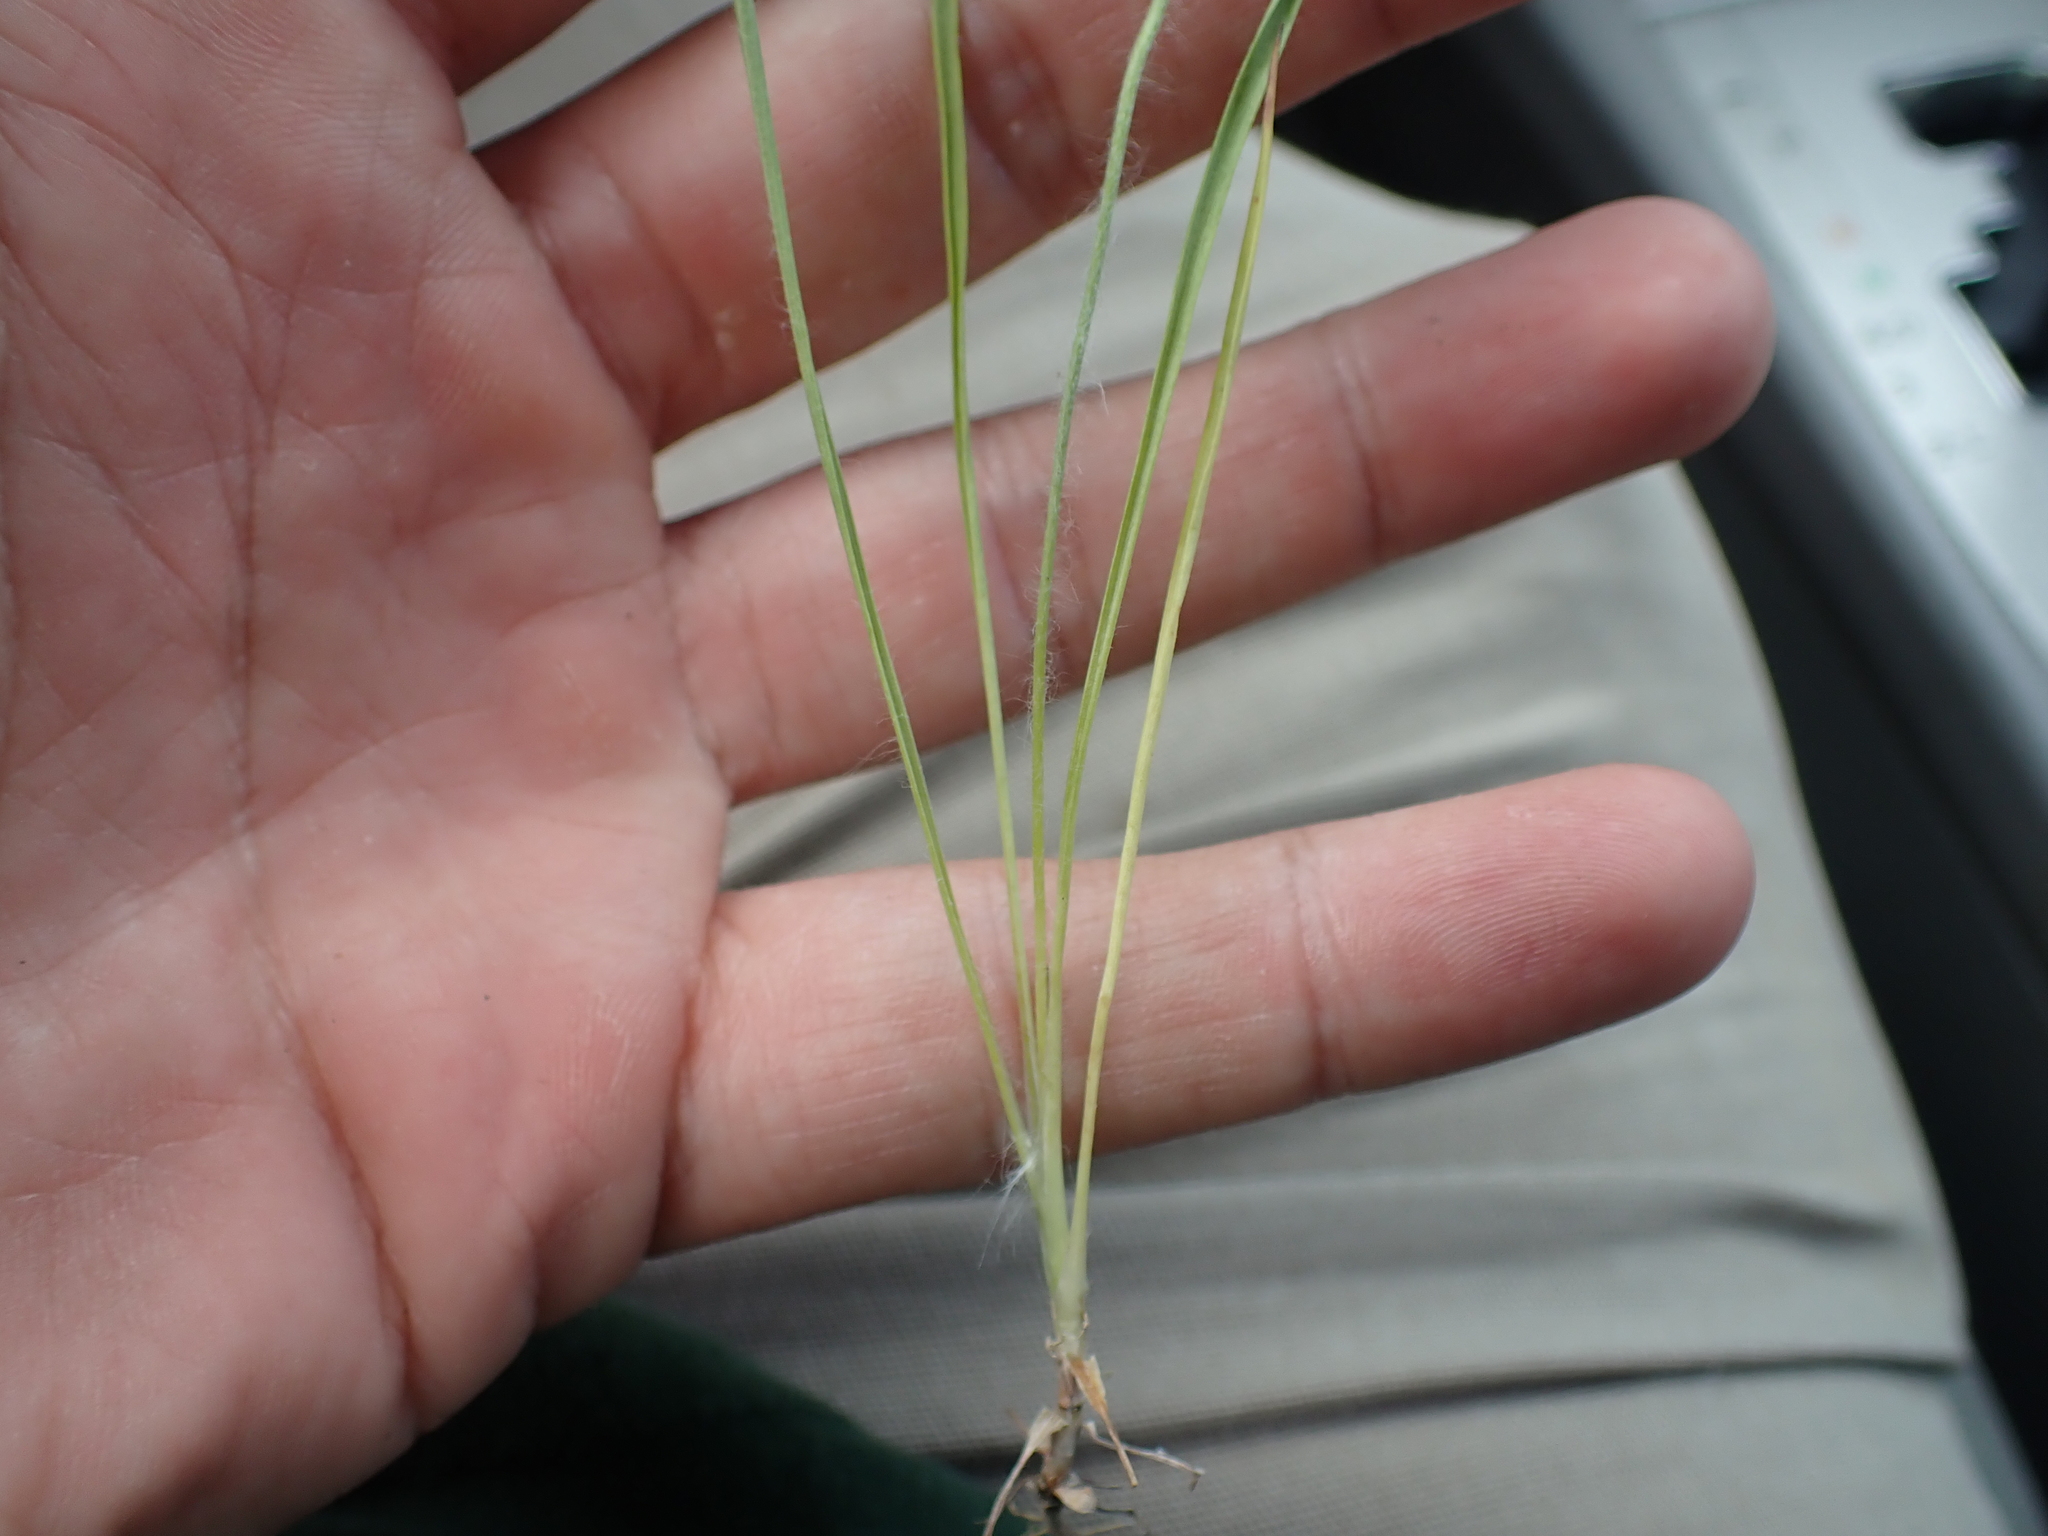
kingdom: Plantae
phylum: Tracheophyta
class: Magnoliopsida
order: Lamiales
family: Plantaginaceae
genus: Plantago
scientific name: Plantago aristata
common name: Bracted plantain
